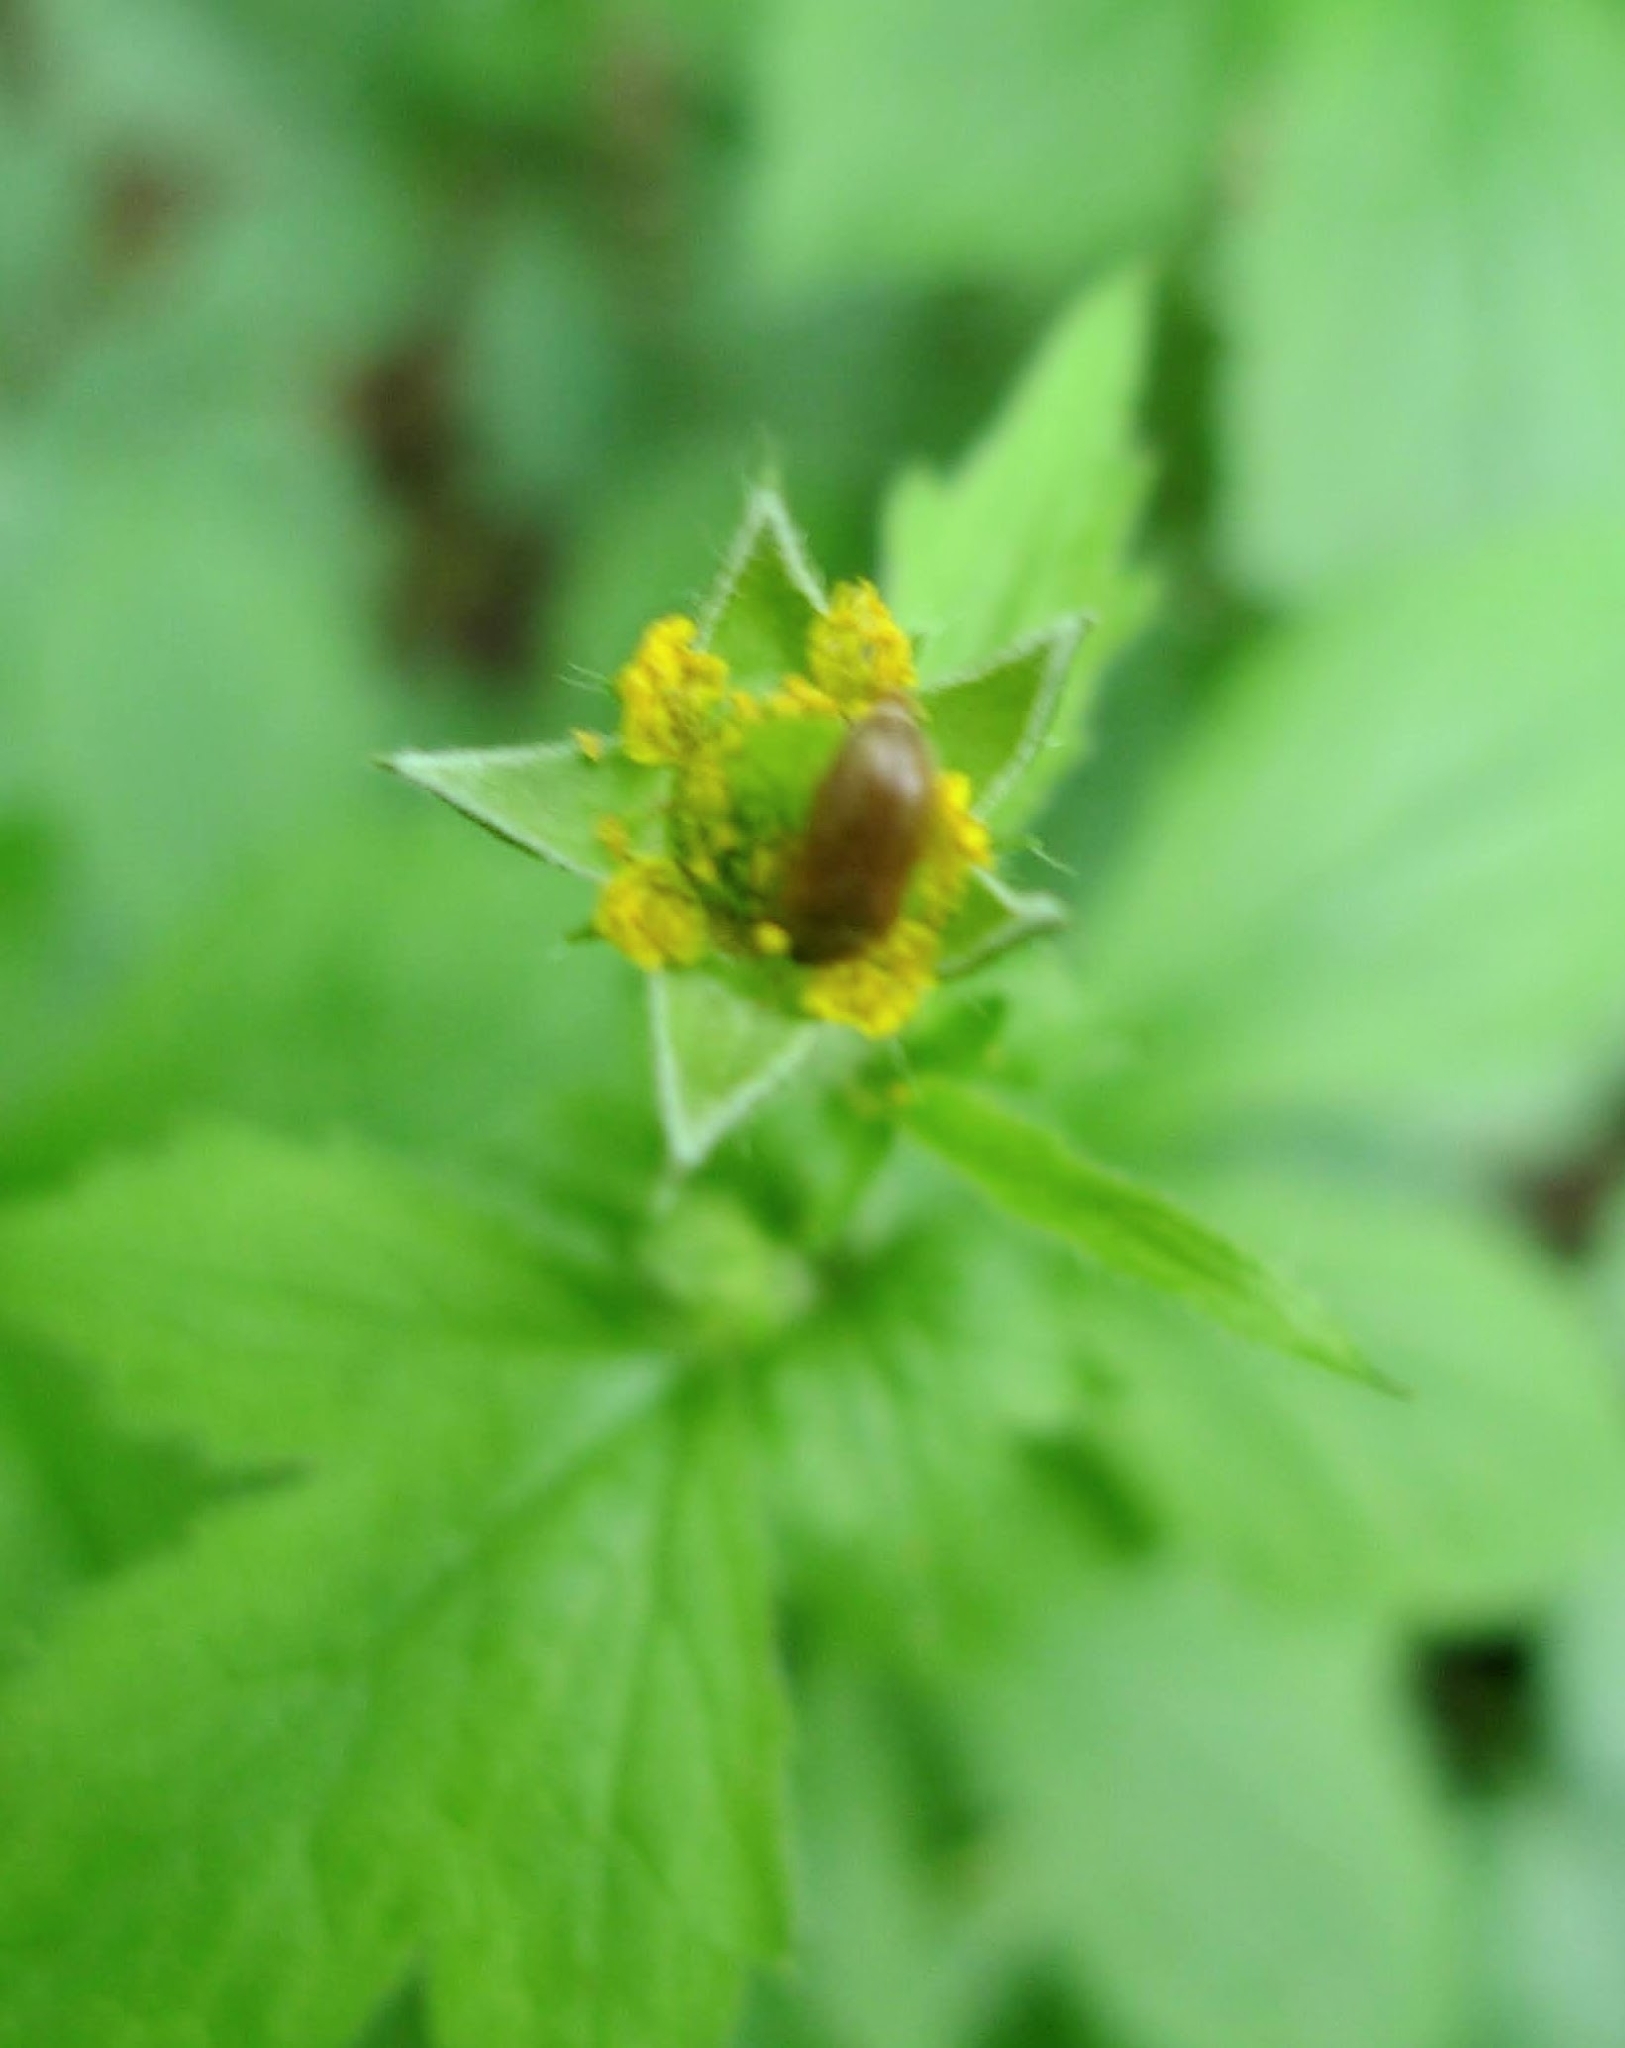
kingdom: Plantae
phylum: Tracheophyta
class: Magnoliopsida
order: Rosales
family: Rosaceae
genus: Geum
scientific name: Geum urbanum
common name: Wood avens
